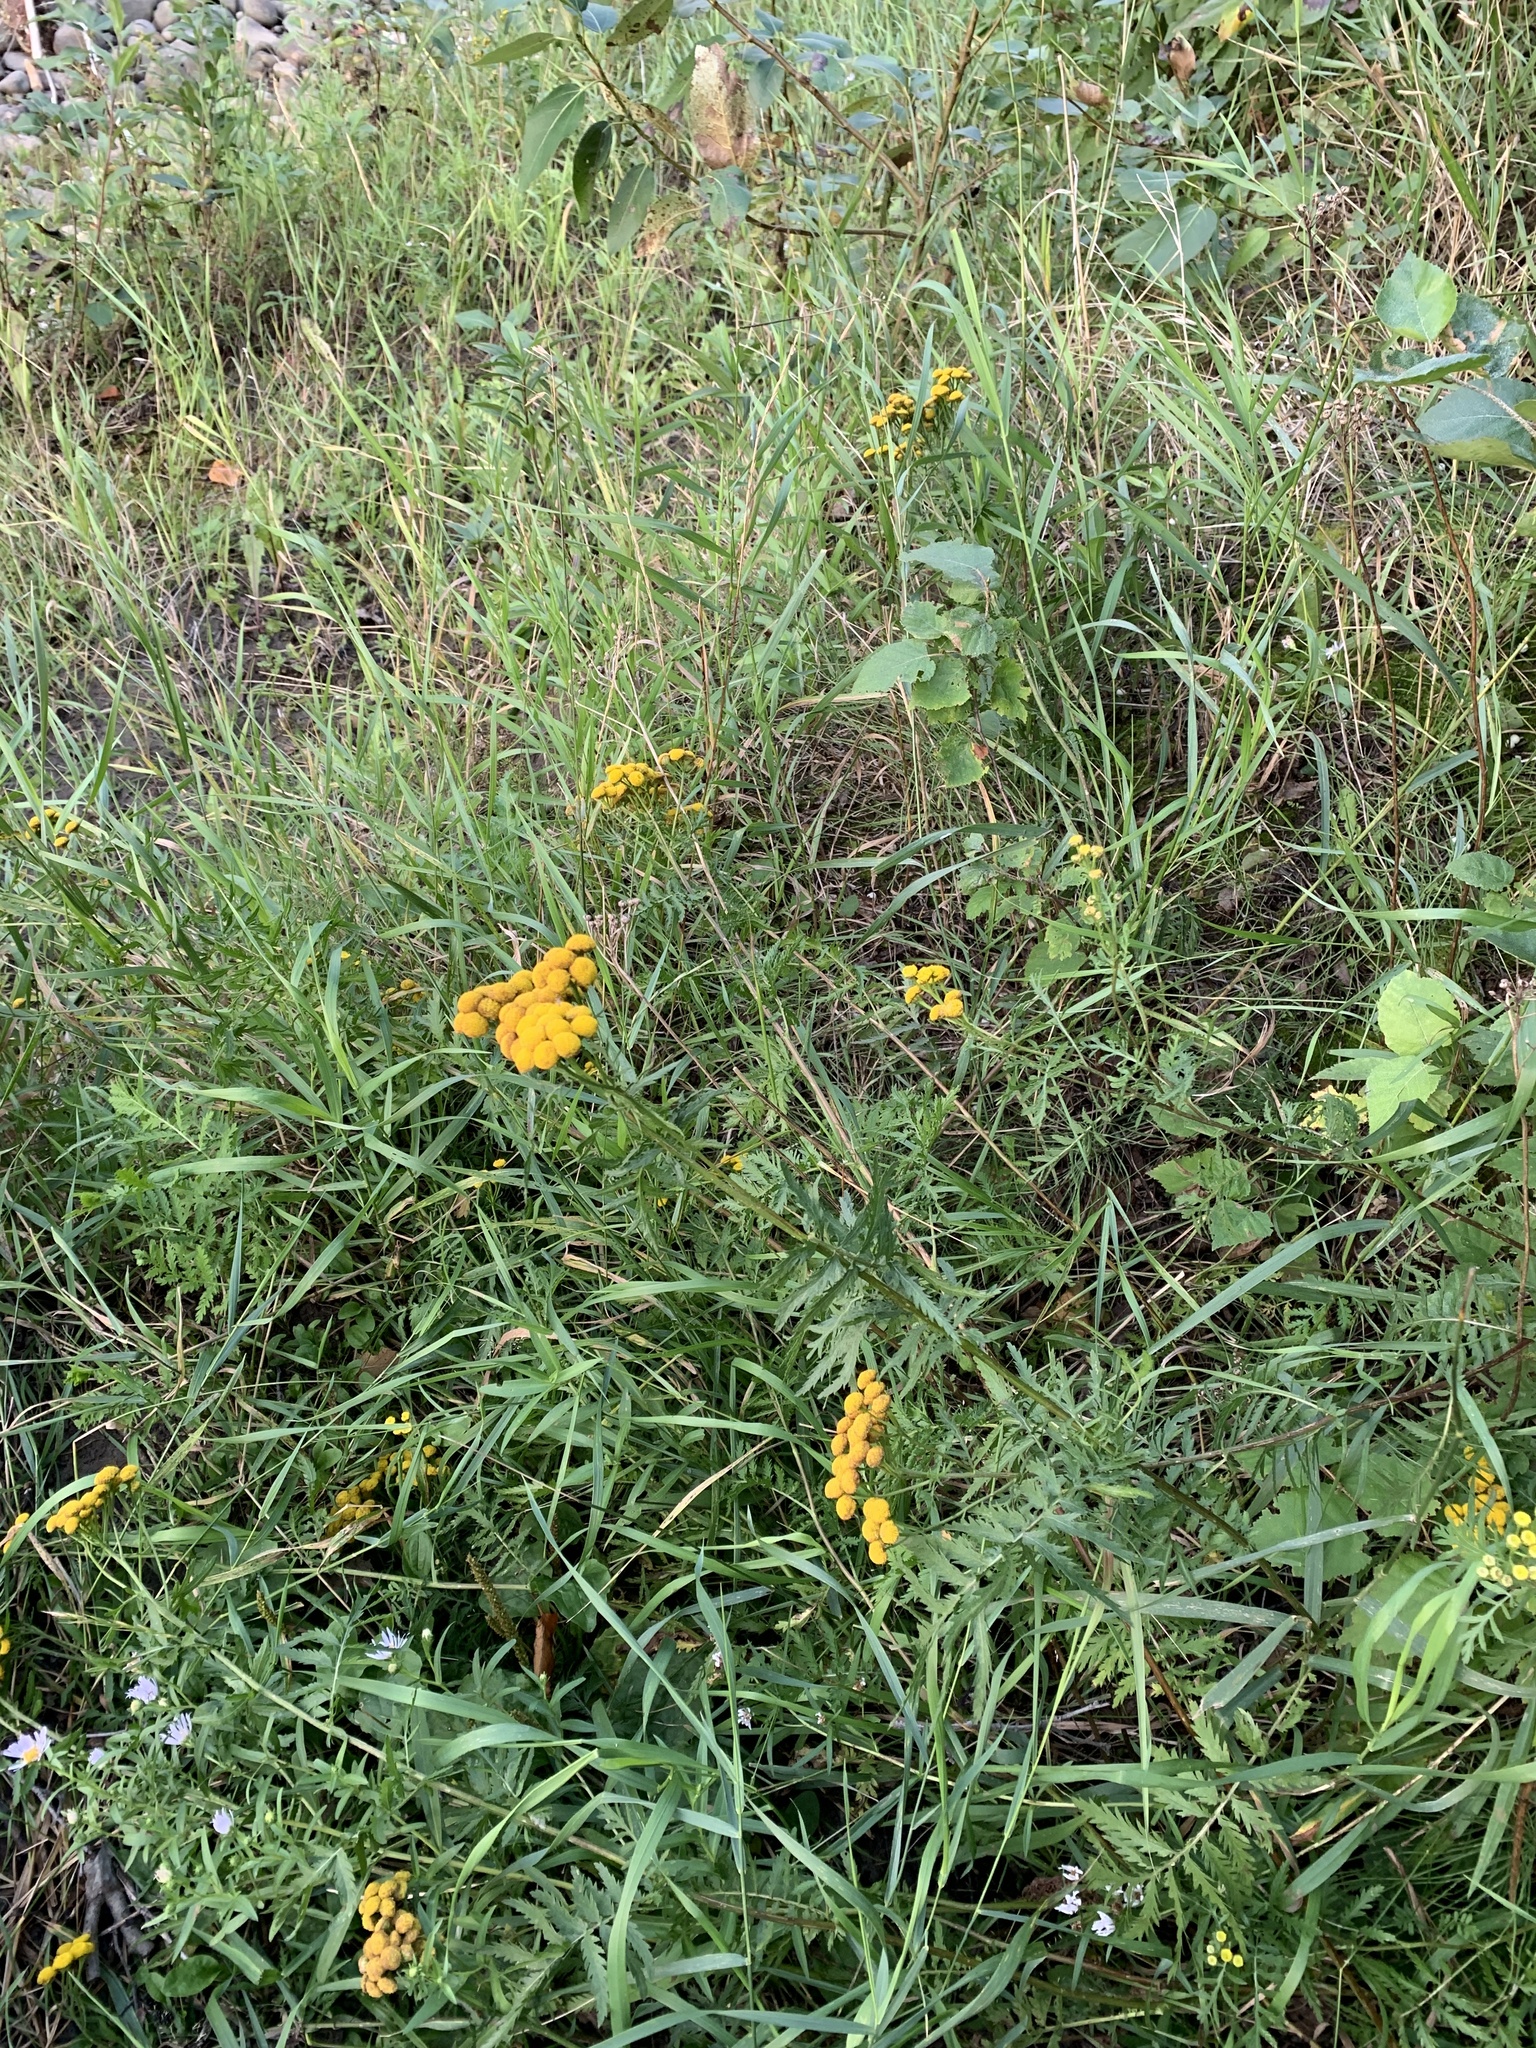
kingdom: Plantae
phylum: Tracheophyta
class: Magnoliopsida
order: Asterales
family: Asteraceae
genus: Tanacetum
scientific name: Tanacetum vulgare
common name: Common tansy
